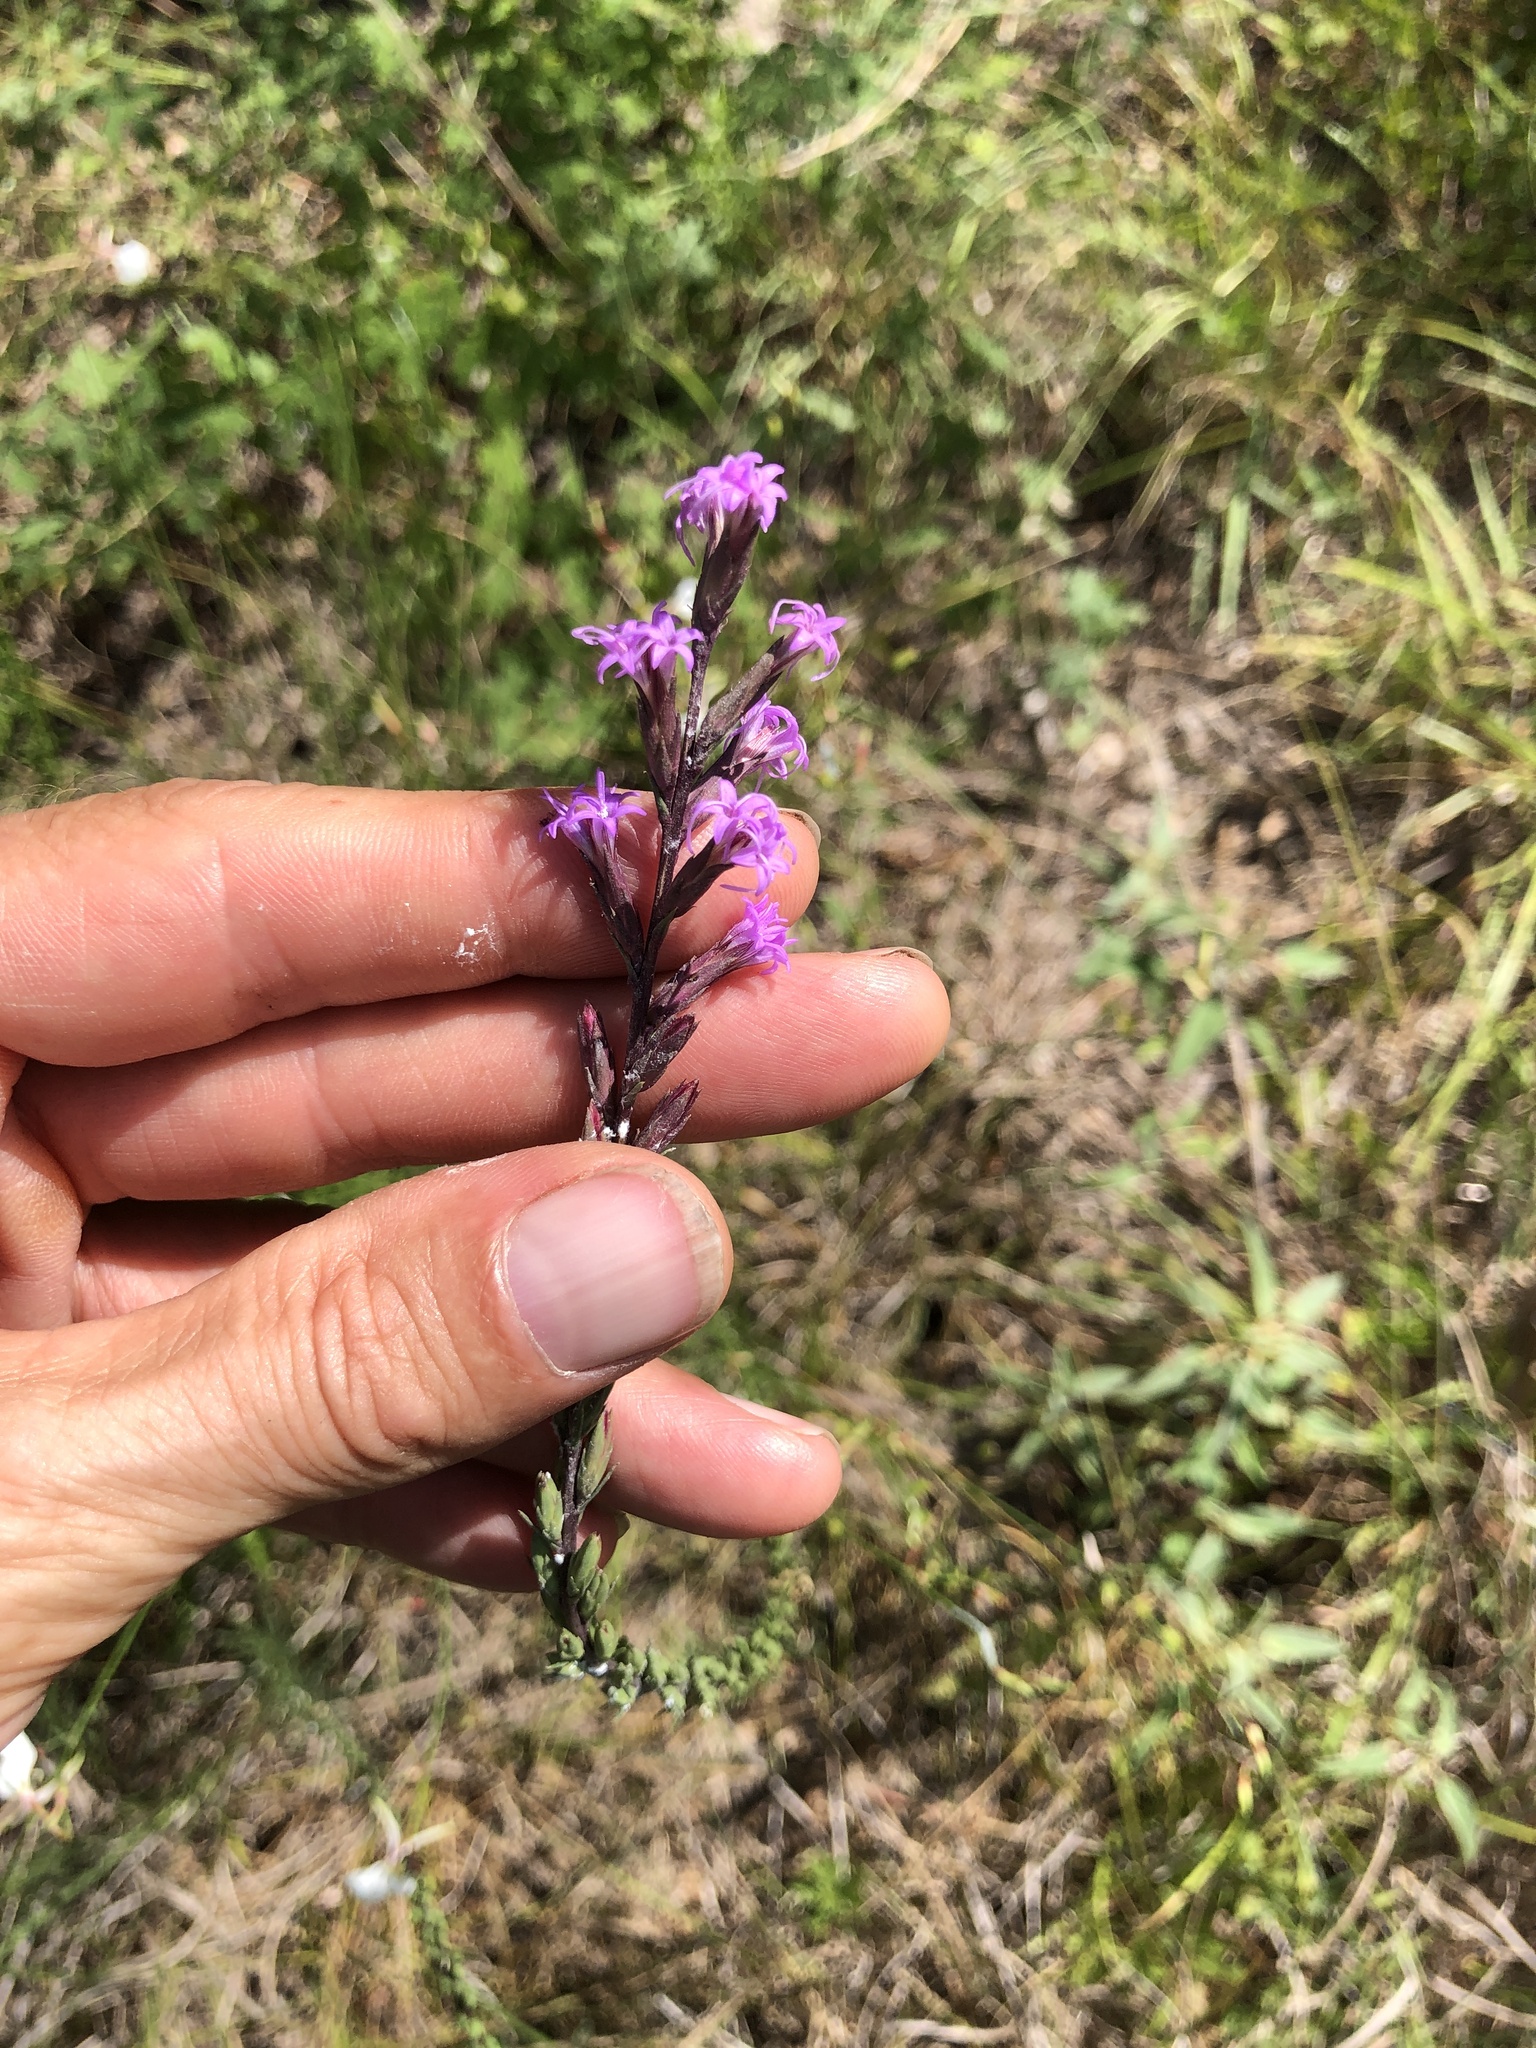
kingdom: Plantae
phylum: Tracheophyta
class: Magnoliopsida
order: Asterales
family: Asteraceae
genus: Liatris
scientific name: Liatris acidota
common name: Gulf coast gayfeather
